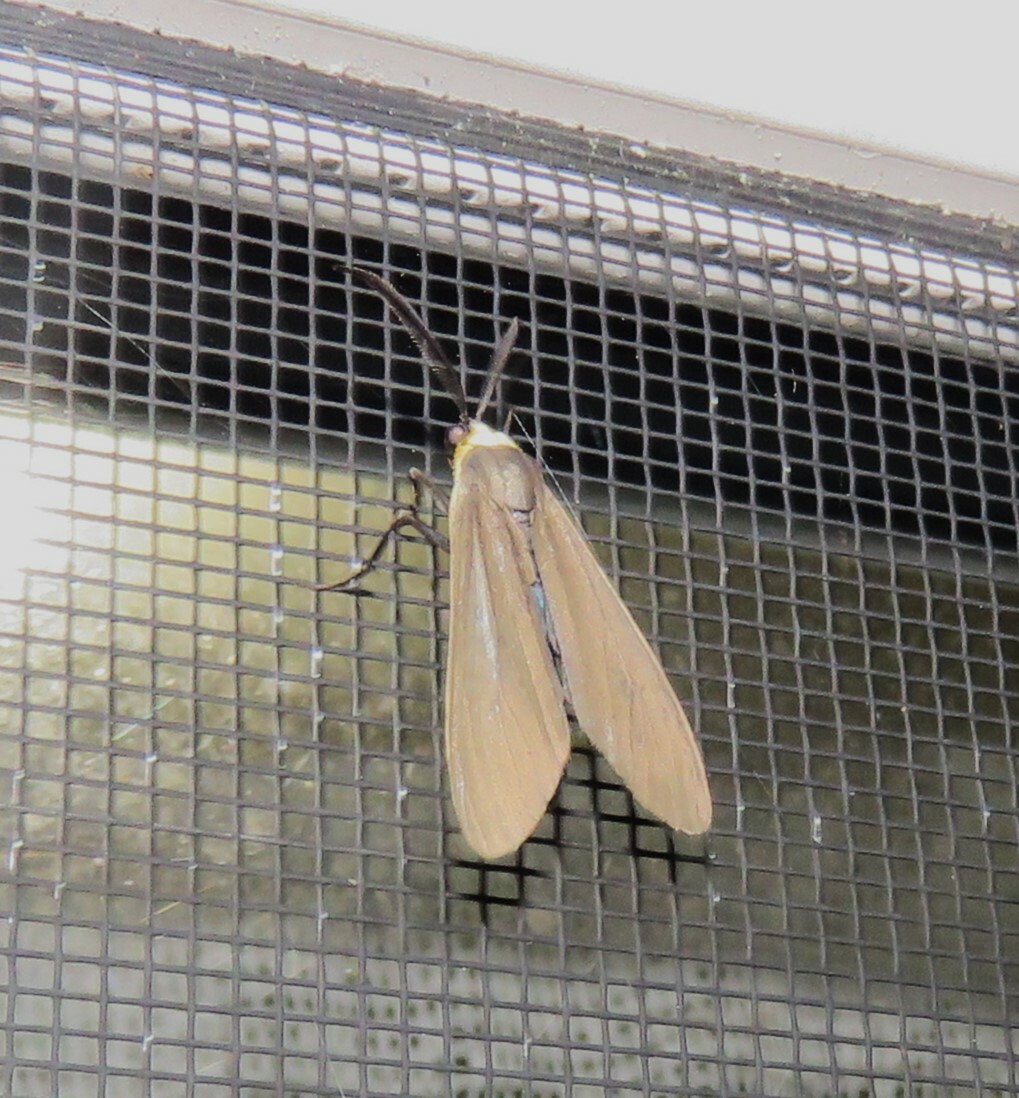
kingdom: Animalia
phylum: Arthropoda
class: Insecta
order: Lepidoptera
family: Erebidae
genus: Cisseps
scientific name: Cisseps fulvicollis
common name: Yellow-collared scape moth
